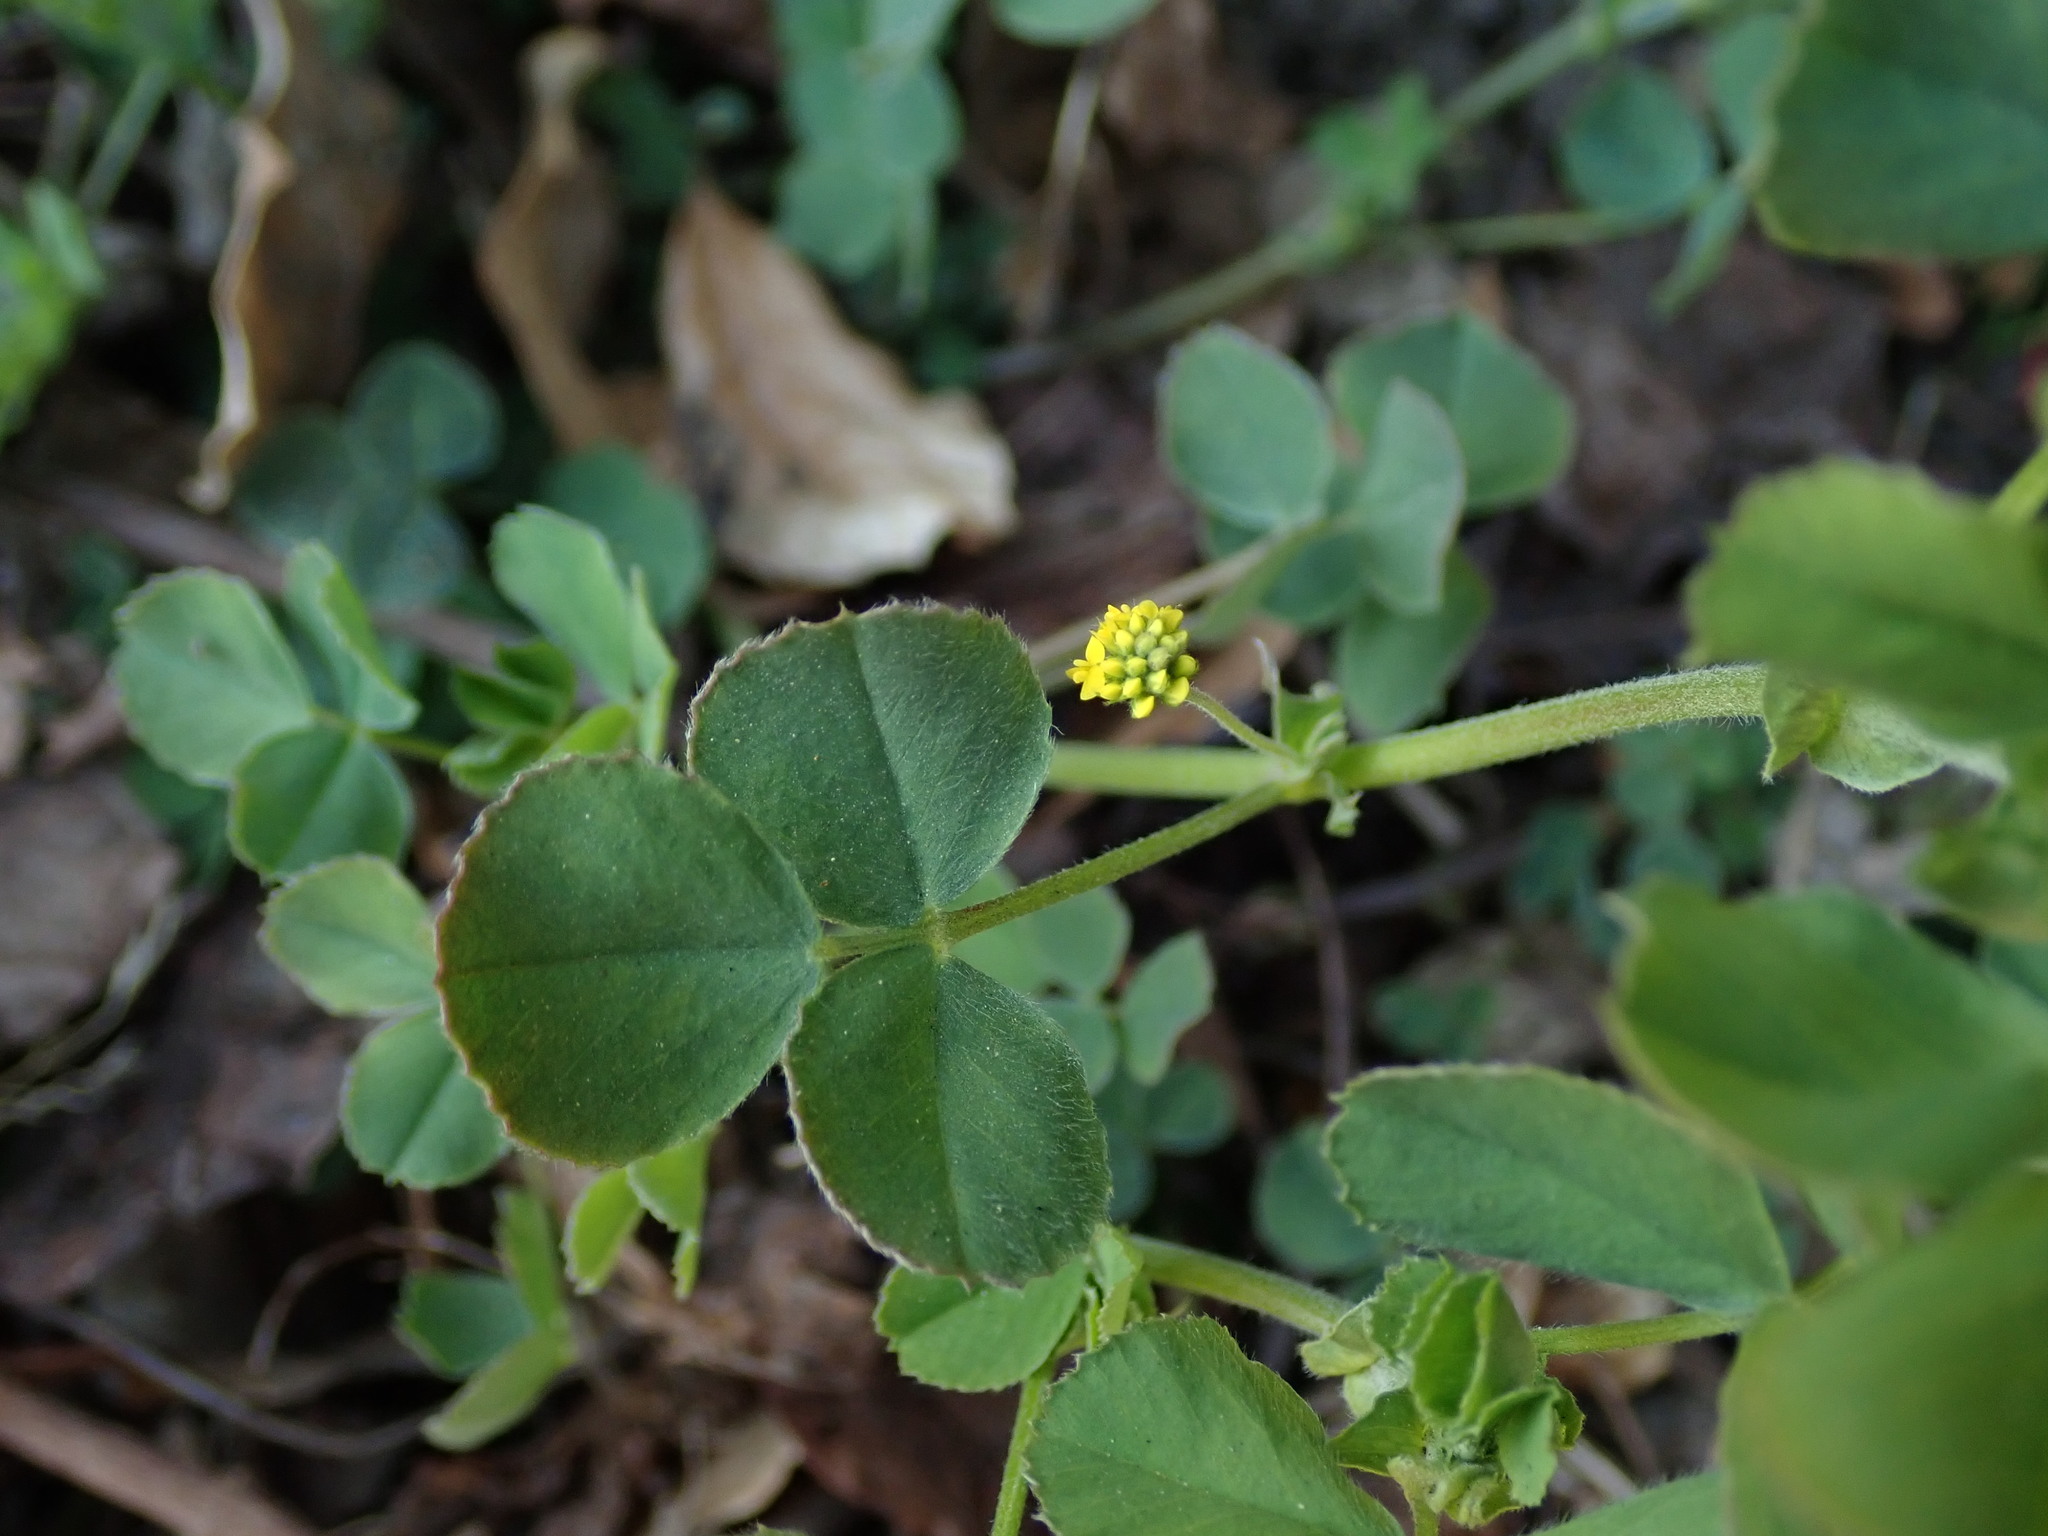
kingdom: Plantae
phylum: Tracheophyta
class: Magnoliopsida
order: Fabales
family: Fabaceae
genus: Medicago
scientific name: Medicago lupulina
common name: Black medick
